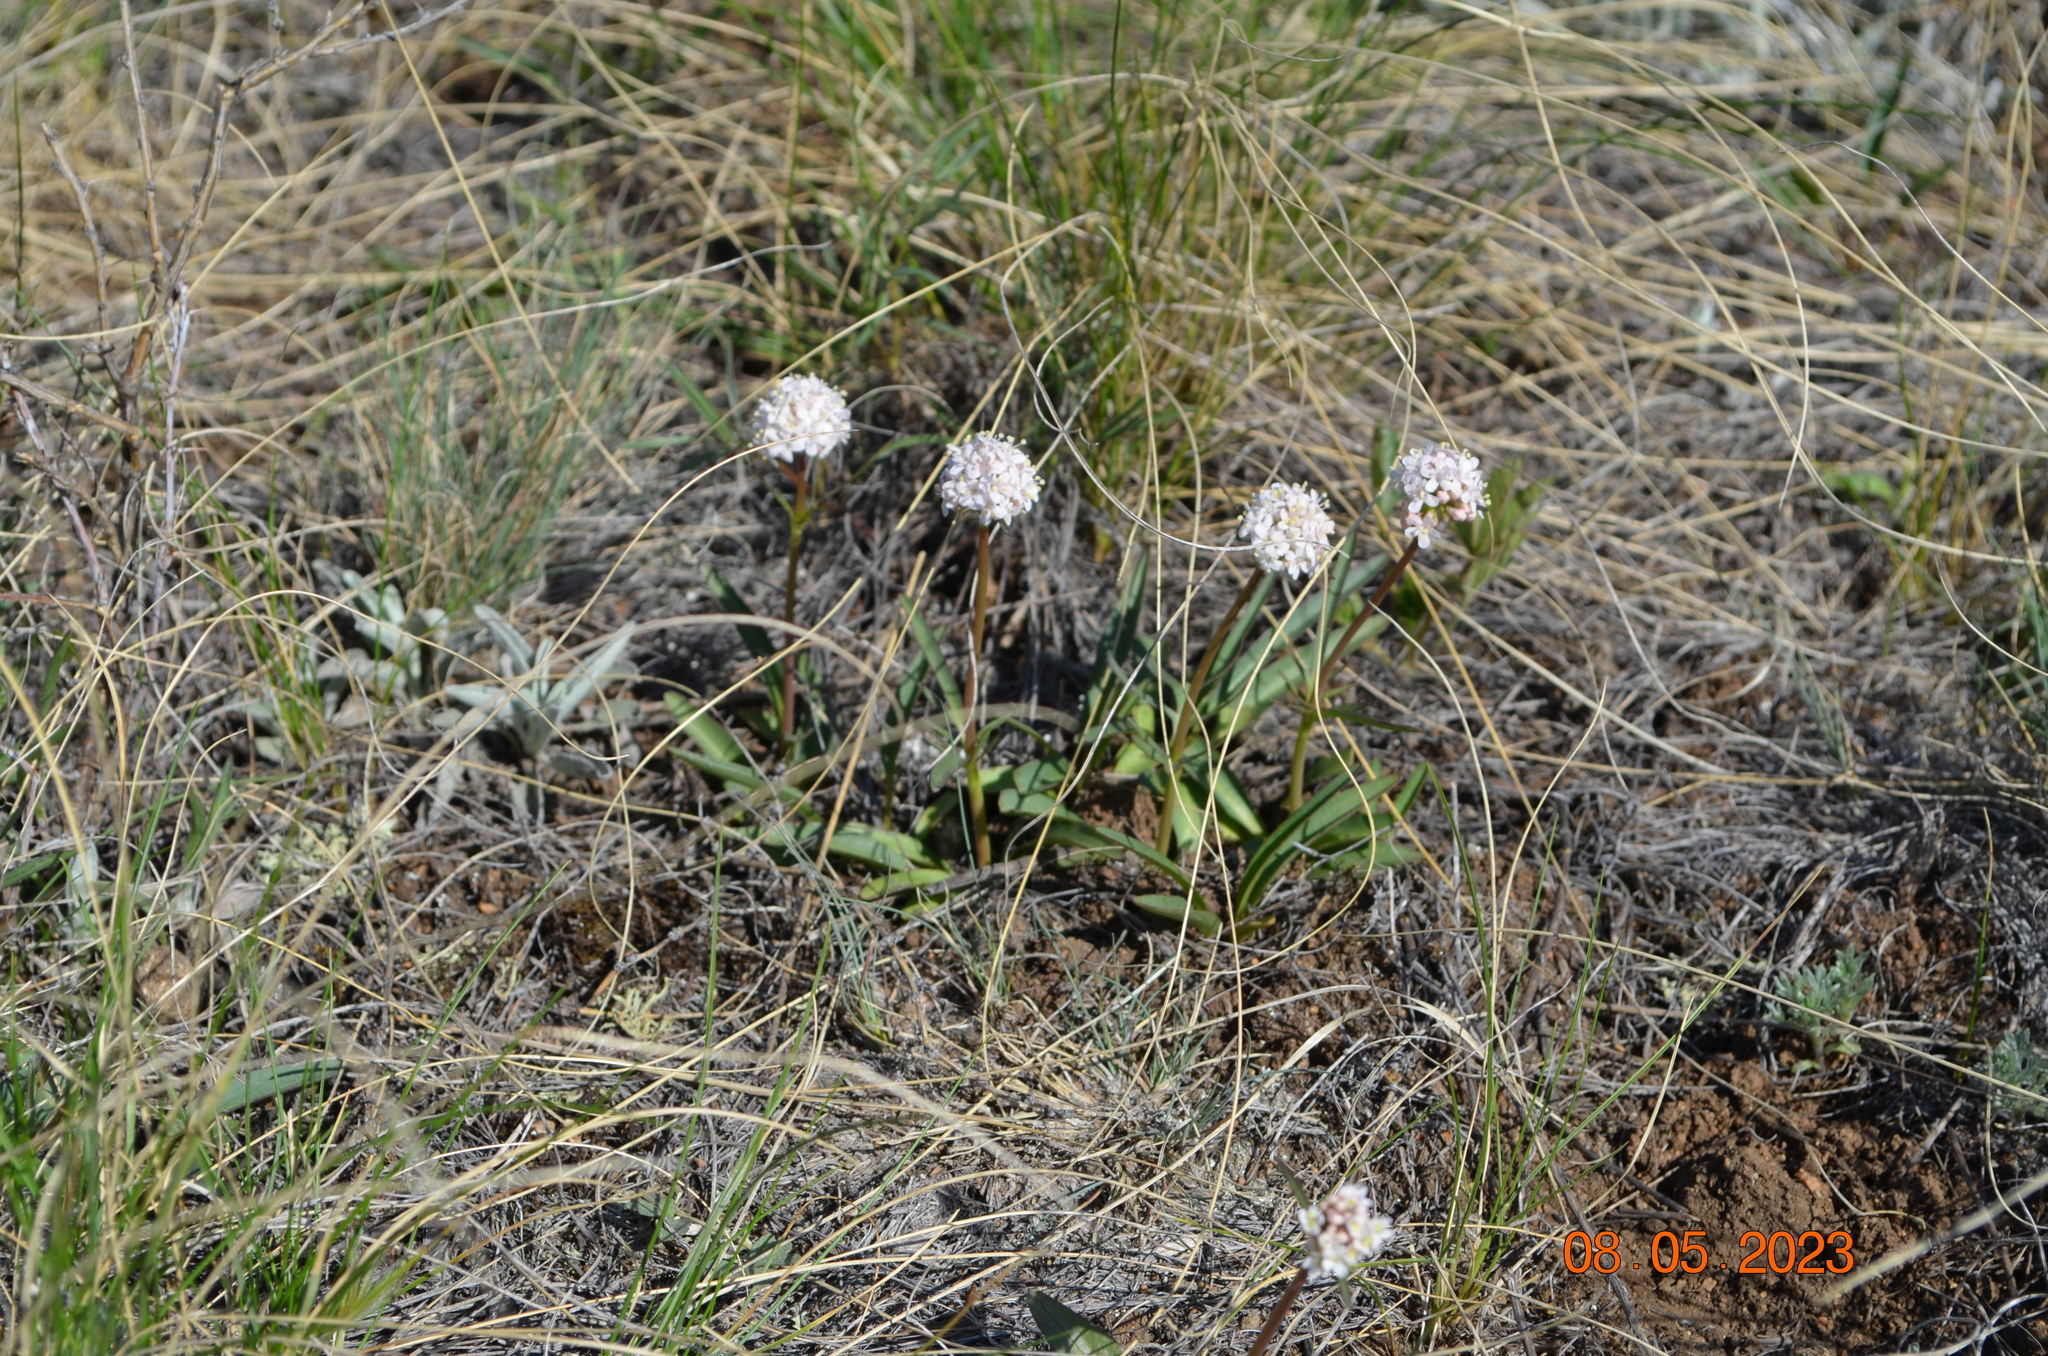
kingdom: Plantae
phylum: Tracheophyta
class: Magnoliopsida
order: Dipsacales
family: Caprifoliaceae
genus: Valeriana
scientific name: Valeriana tuberosa
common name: Tuberous valerian
